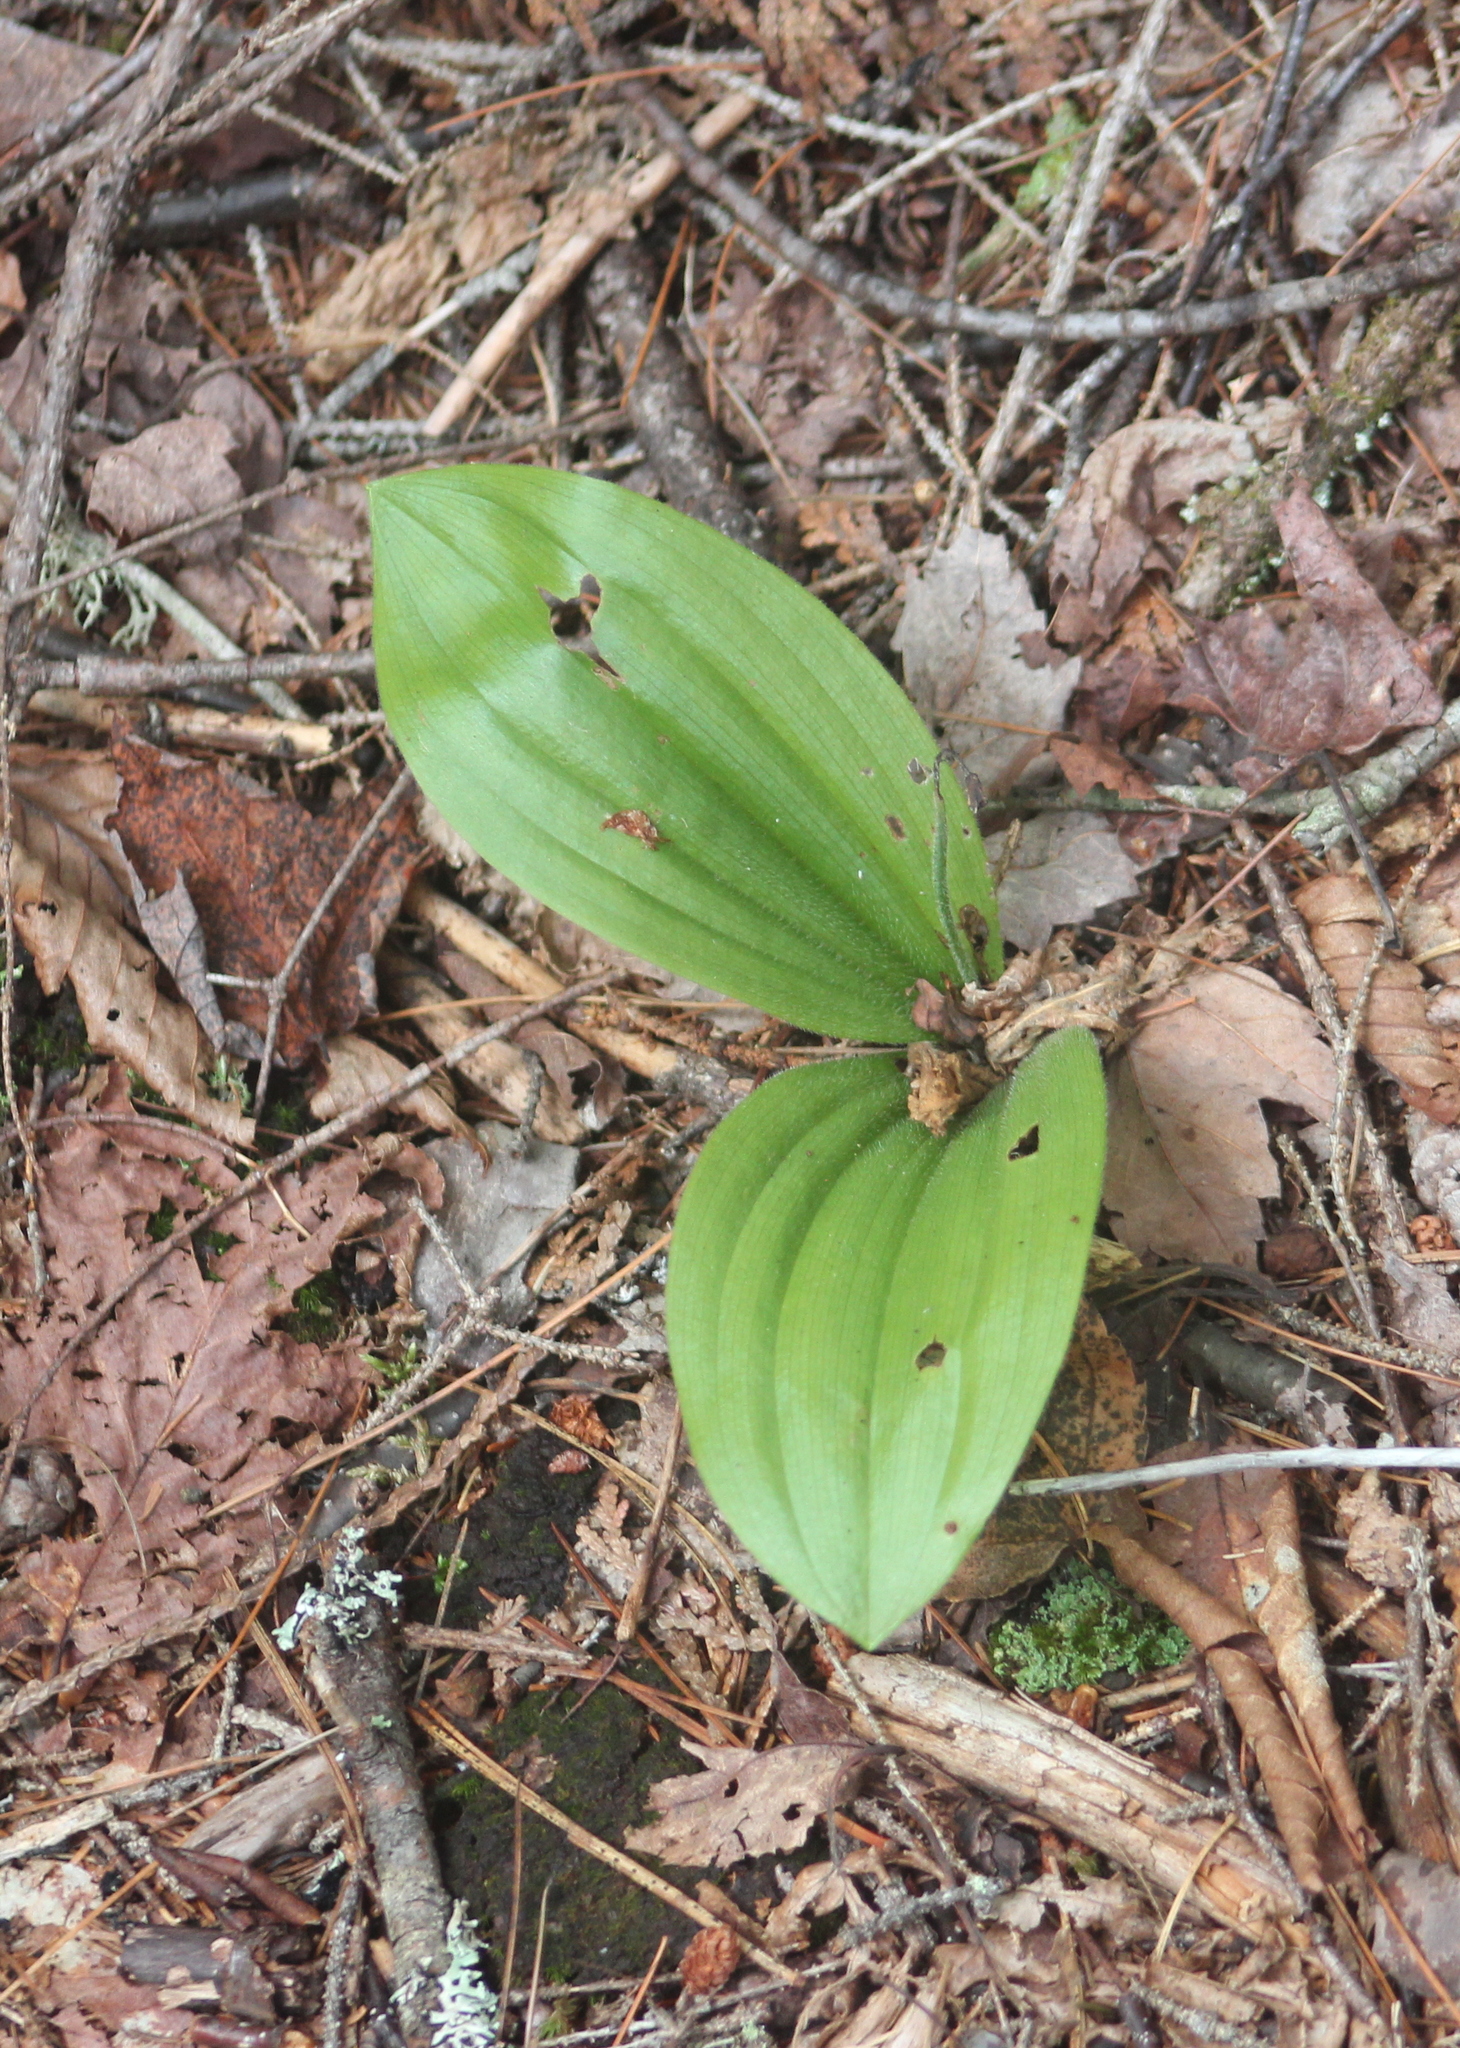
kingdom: Plantae
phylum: Tracheophyta
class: Liliopsida
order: Asparagales
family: Orchidaceae
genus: Cypripedium
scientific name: Cypripedium acaule
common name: Pink lady's-slipper
